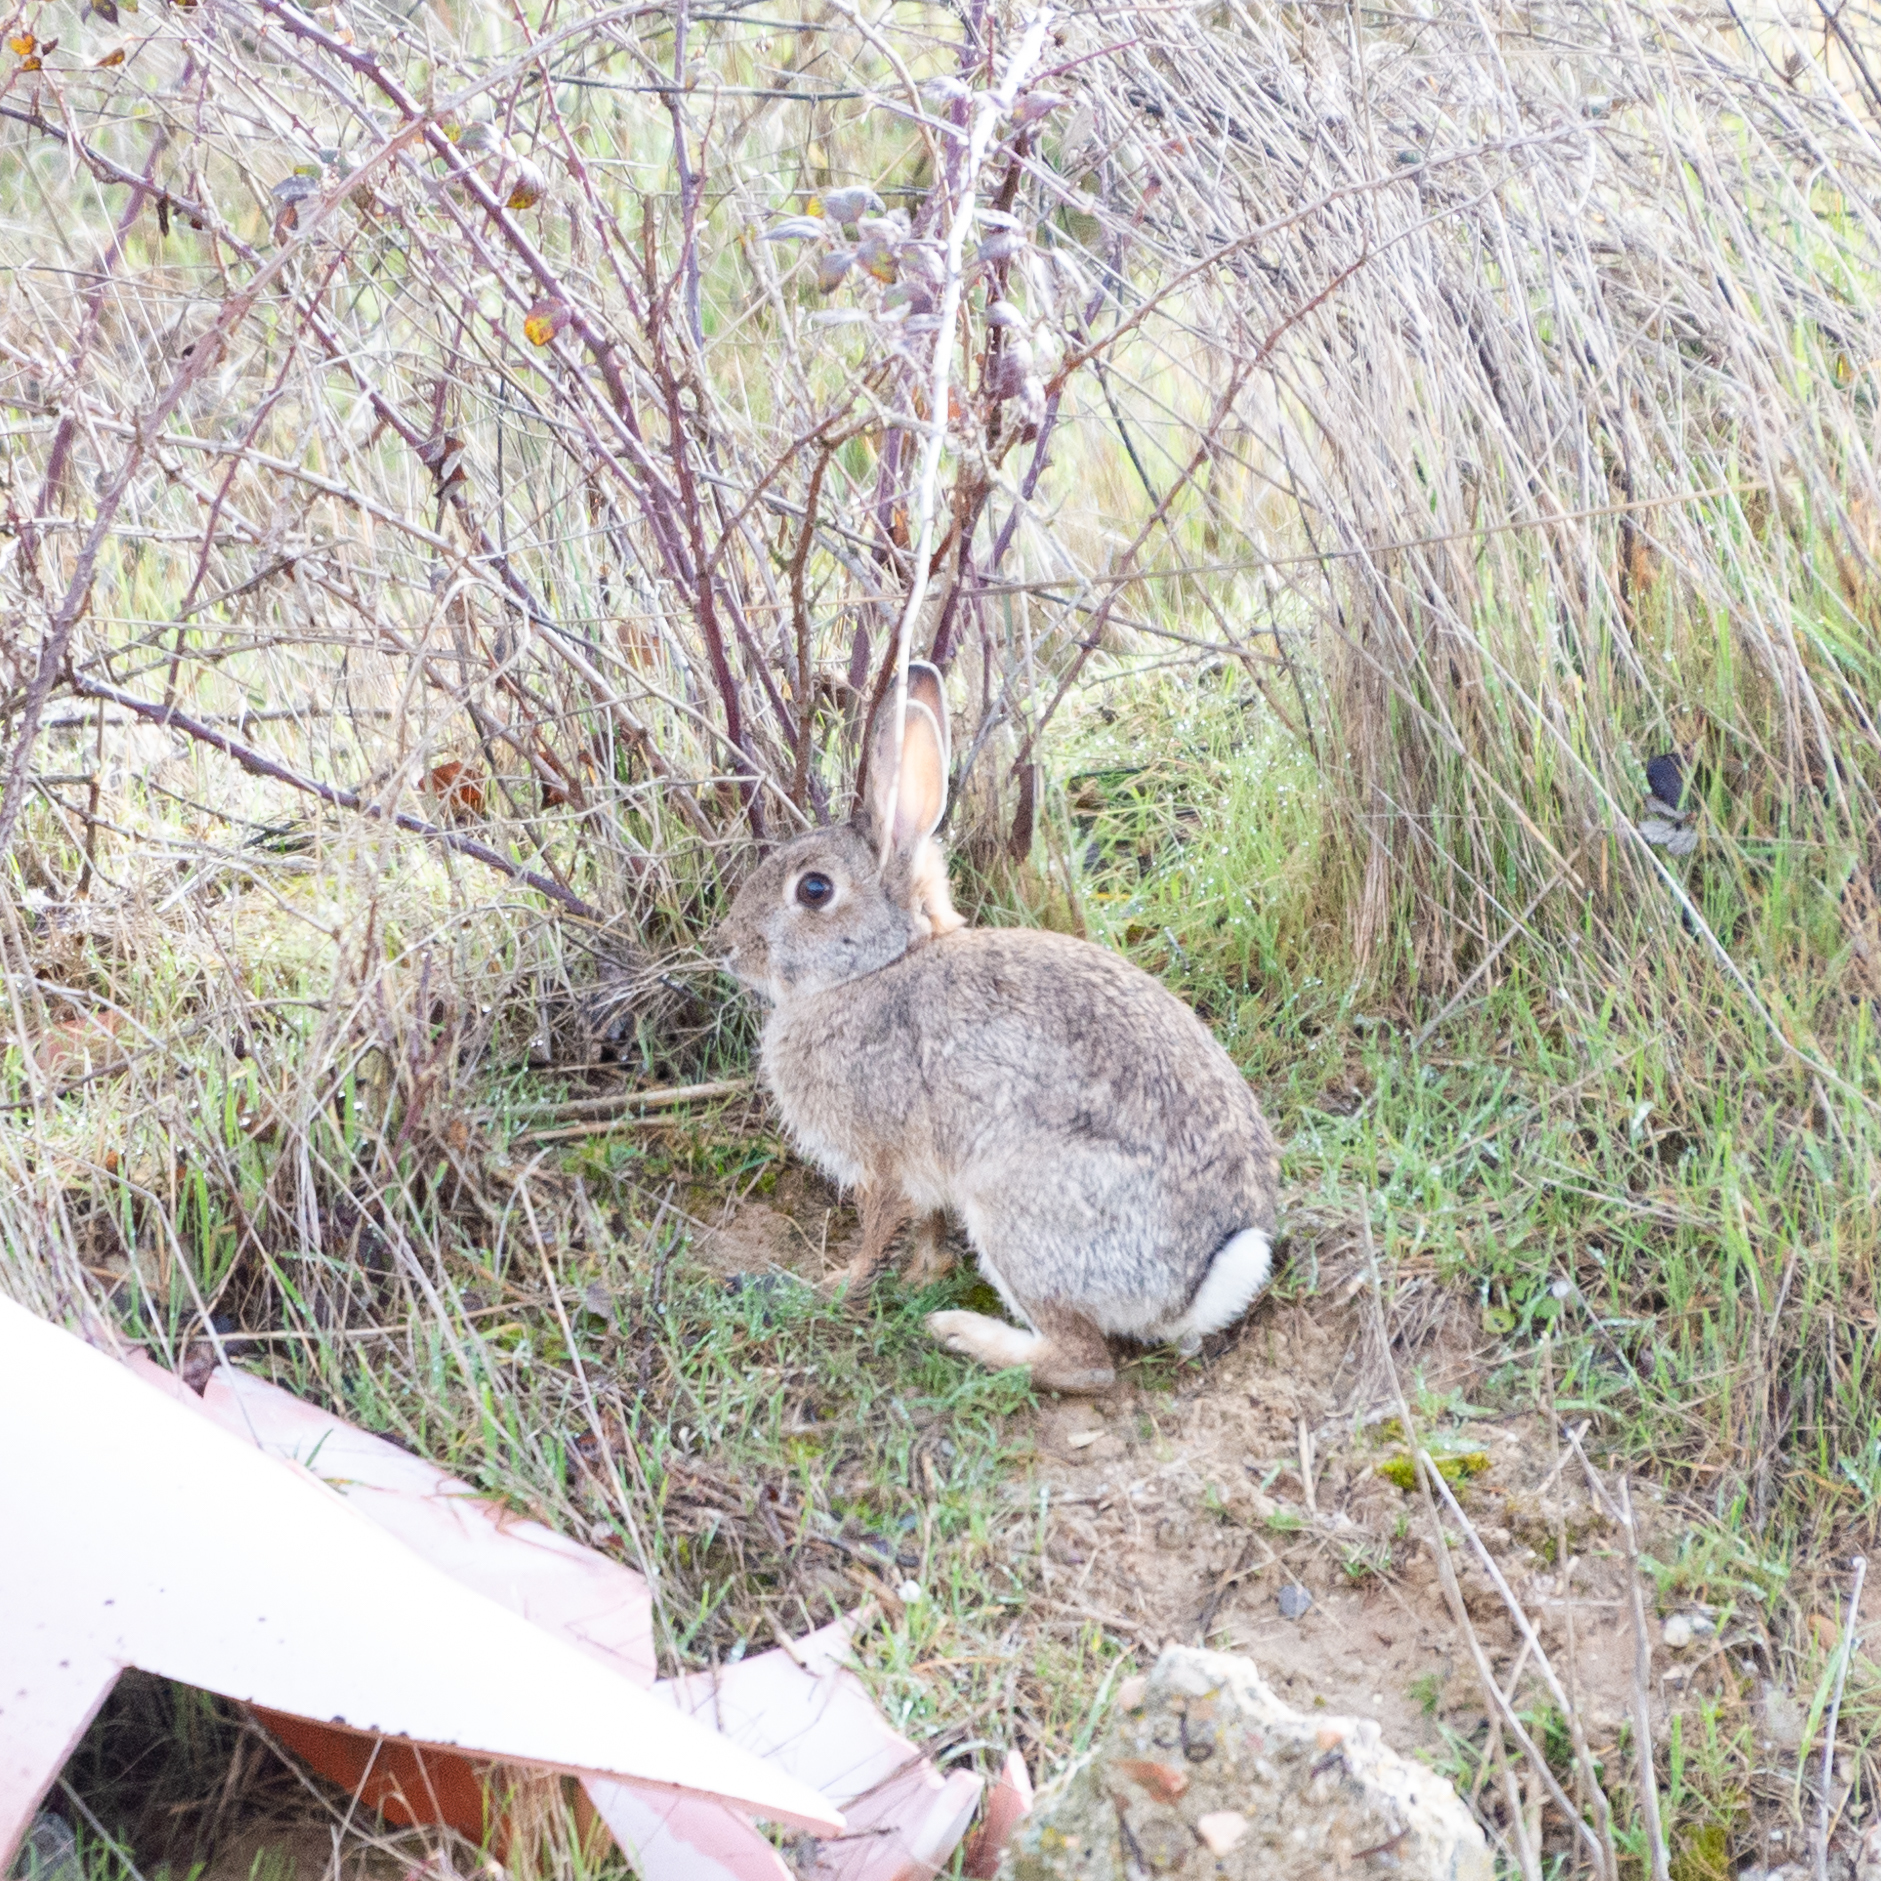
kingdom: Animalia
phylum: Chordata
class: Mammalia
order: Lagomorpha
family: Leporidae
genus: Oryctolagus
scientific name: Oryctolagus cuniculus
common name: European rabbit
